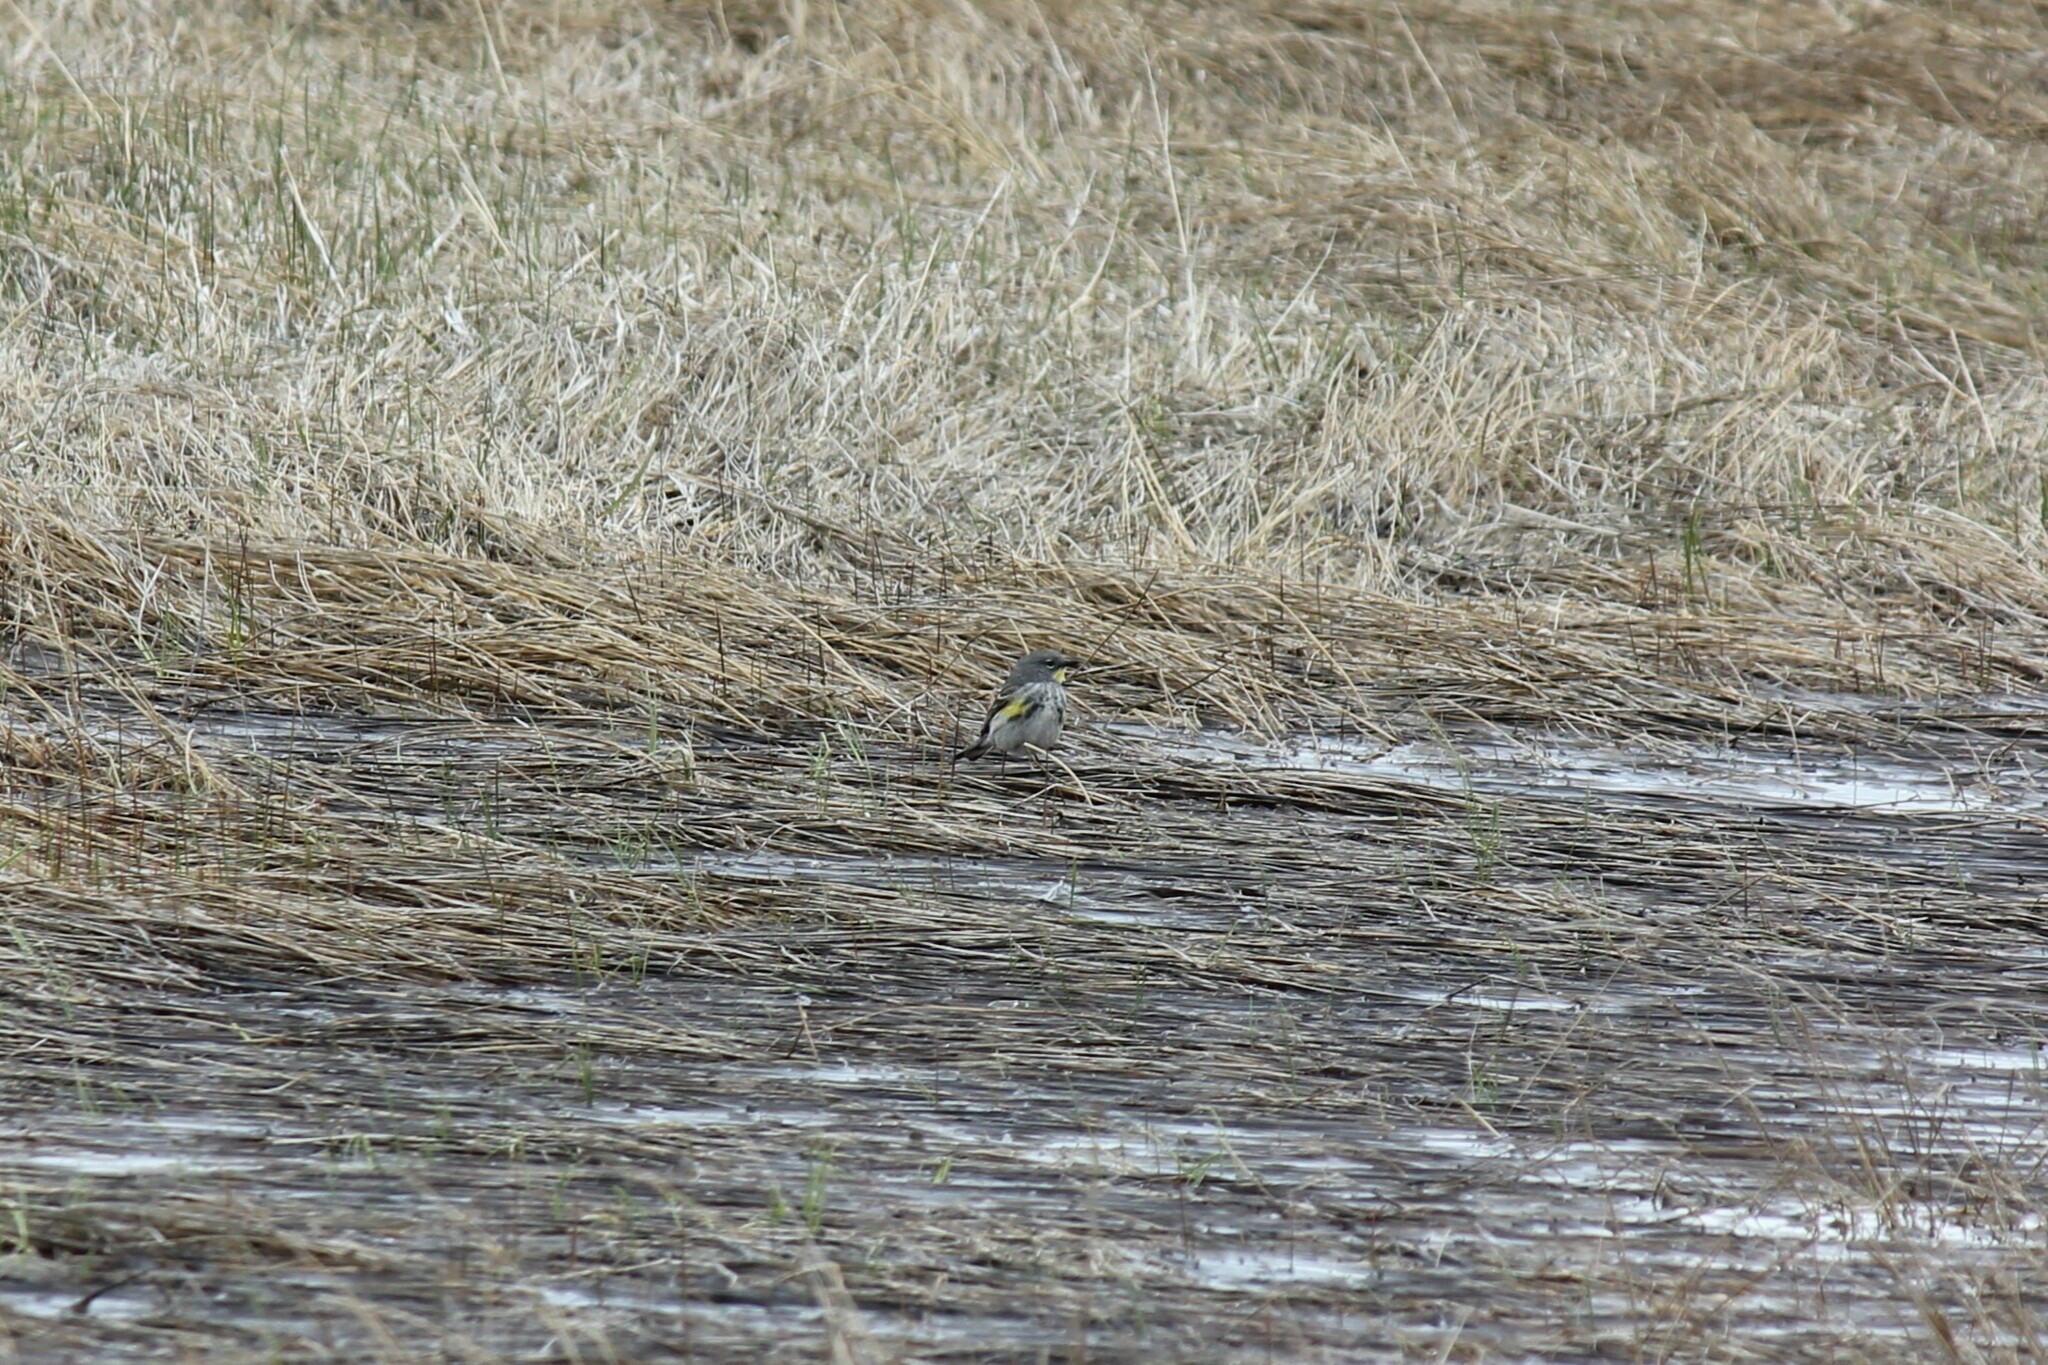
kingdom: Animalia
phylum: Chordata
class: Aves
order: Passeriformes
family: Parulidae
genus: Setophaga
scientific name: Setophaga coronata
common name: Myrtle warbler
